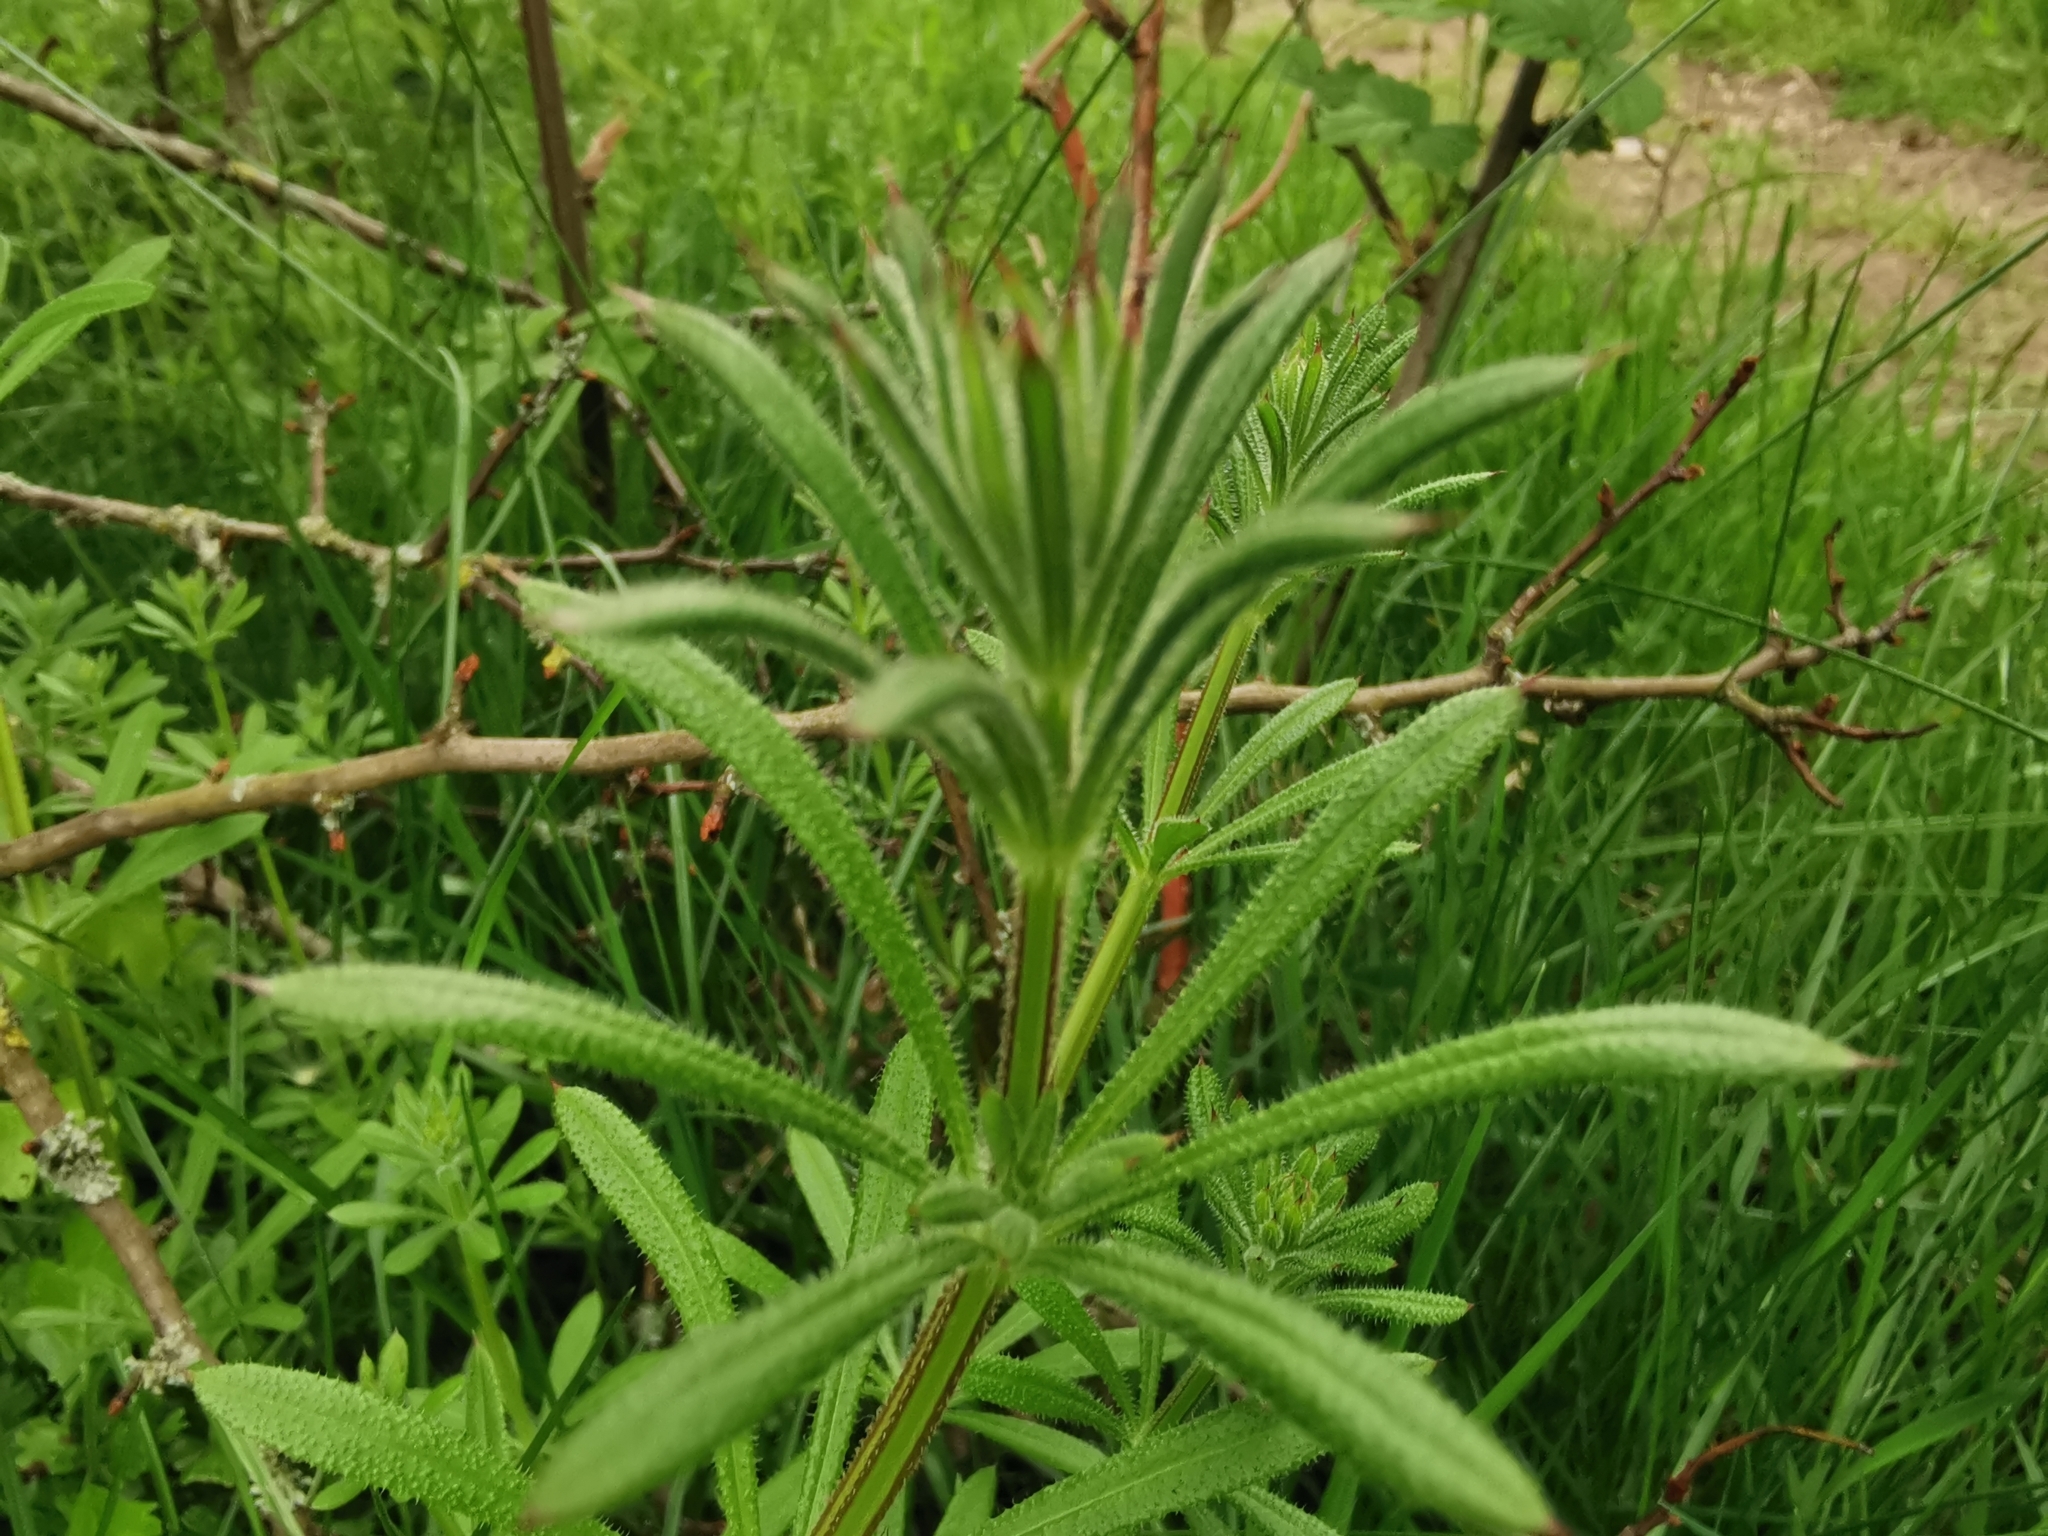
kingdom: Plantae
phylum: Tracheophyta
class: Magnoliopsida
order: Gentianales
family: Rubiaceae
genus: Galium
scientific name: Galium aparine
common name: Cleavers
